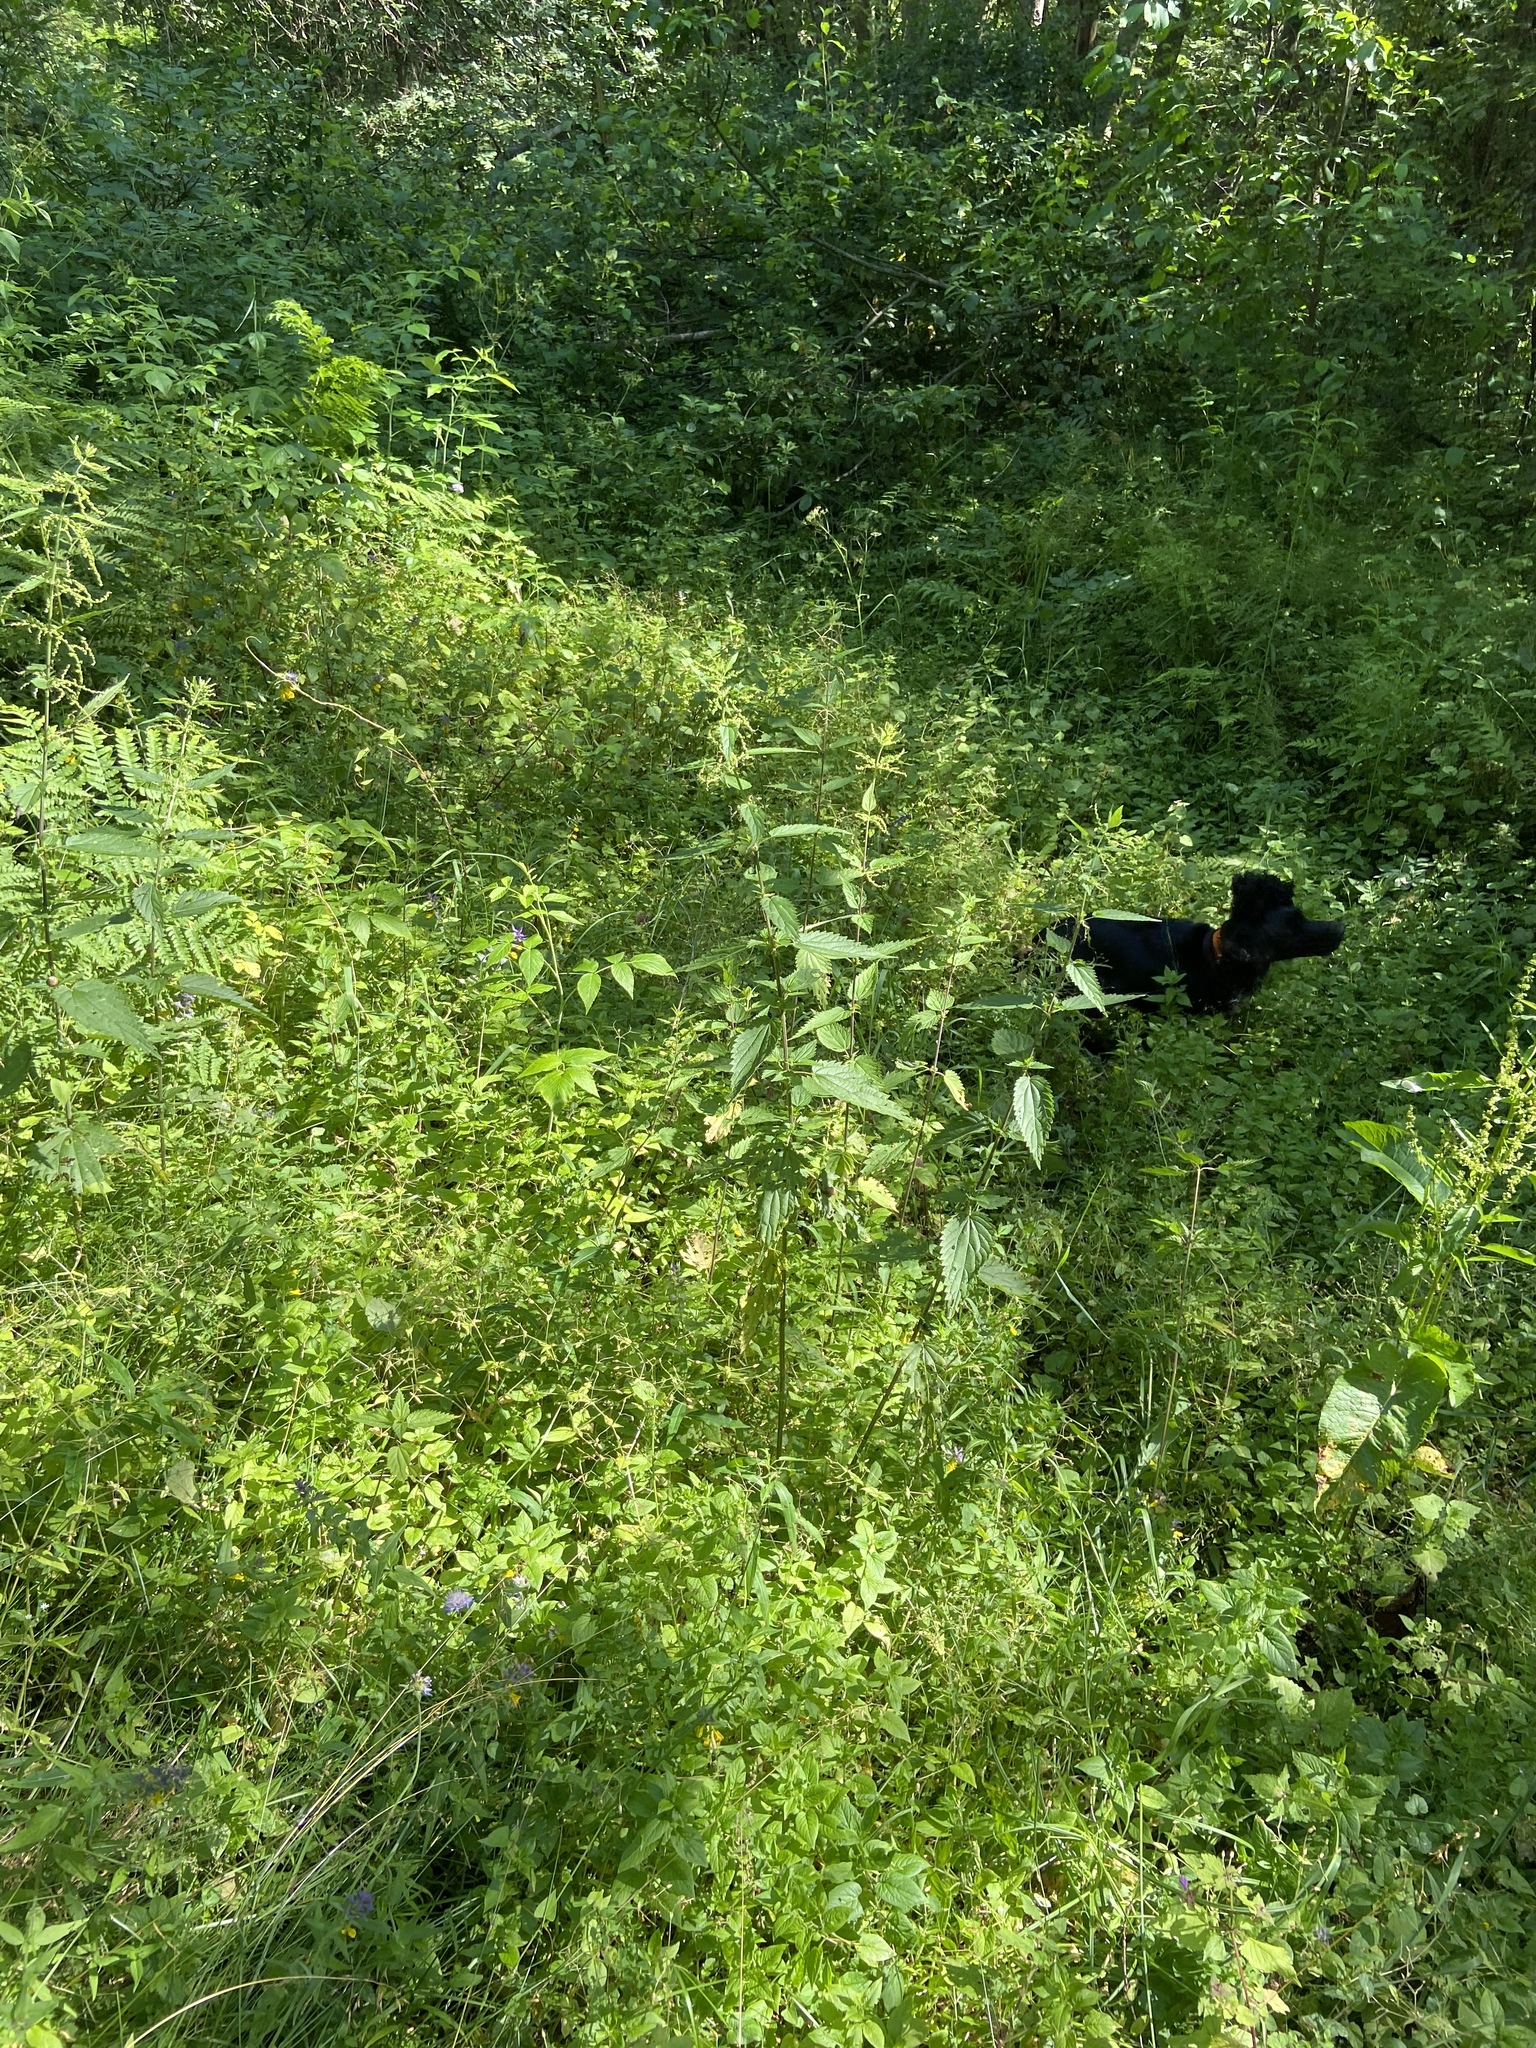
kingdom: Plantae
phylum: Tracheophyta
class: Magnoliopsida
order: Rosales
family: Urticaceae
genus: Urtica
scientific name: Urtica dioica
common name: Common nettle
